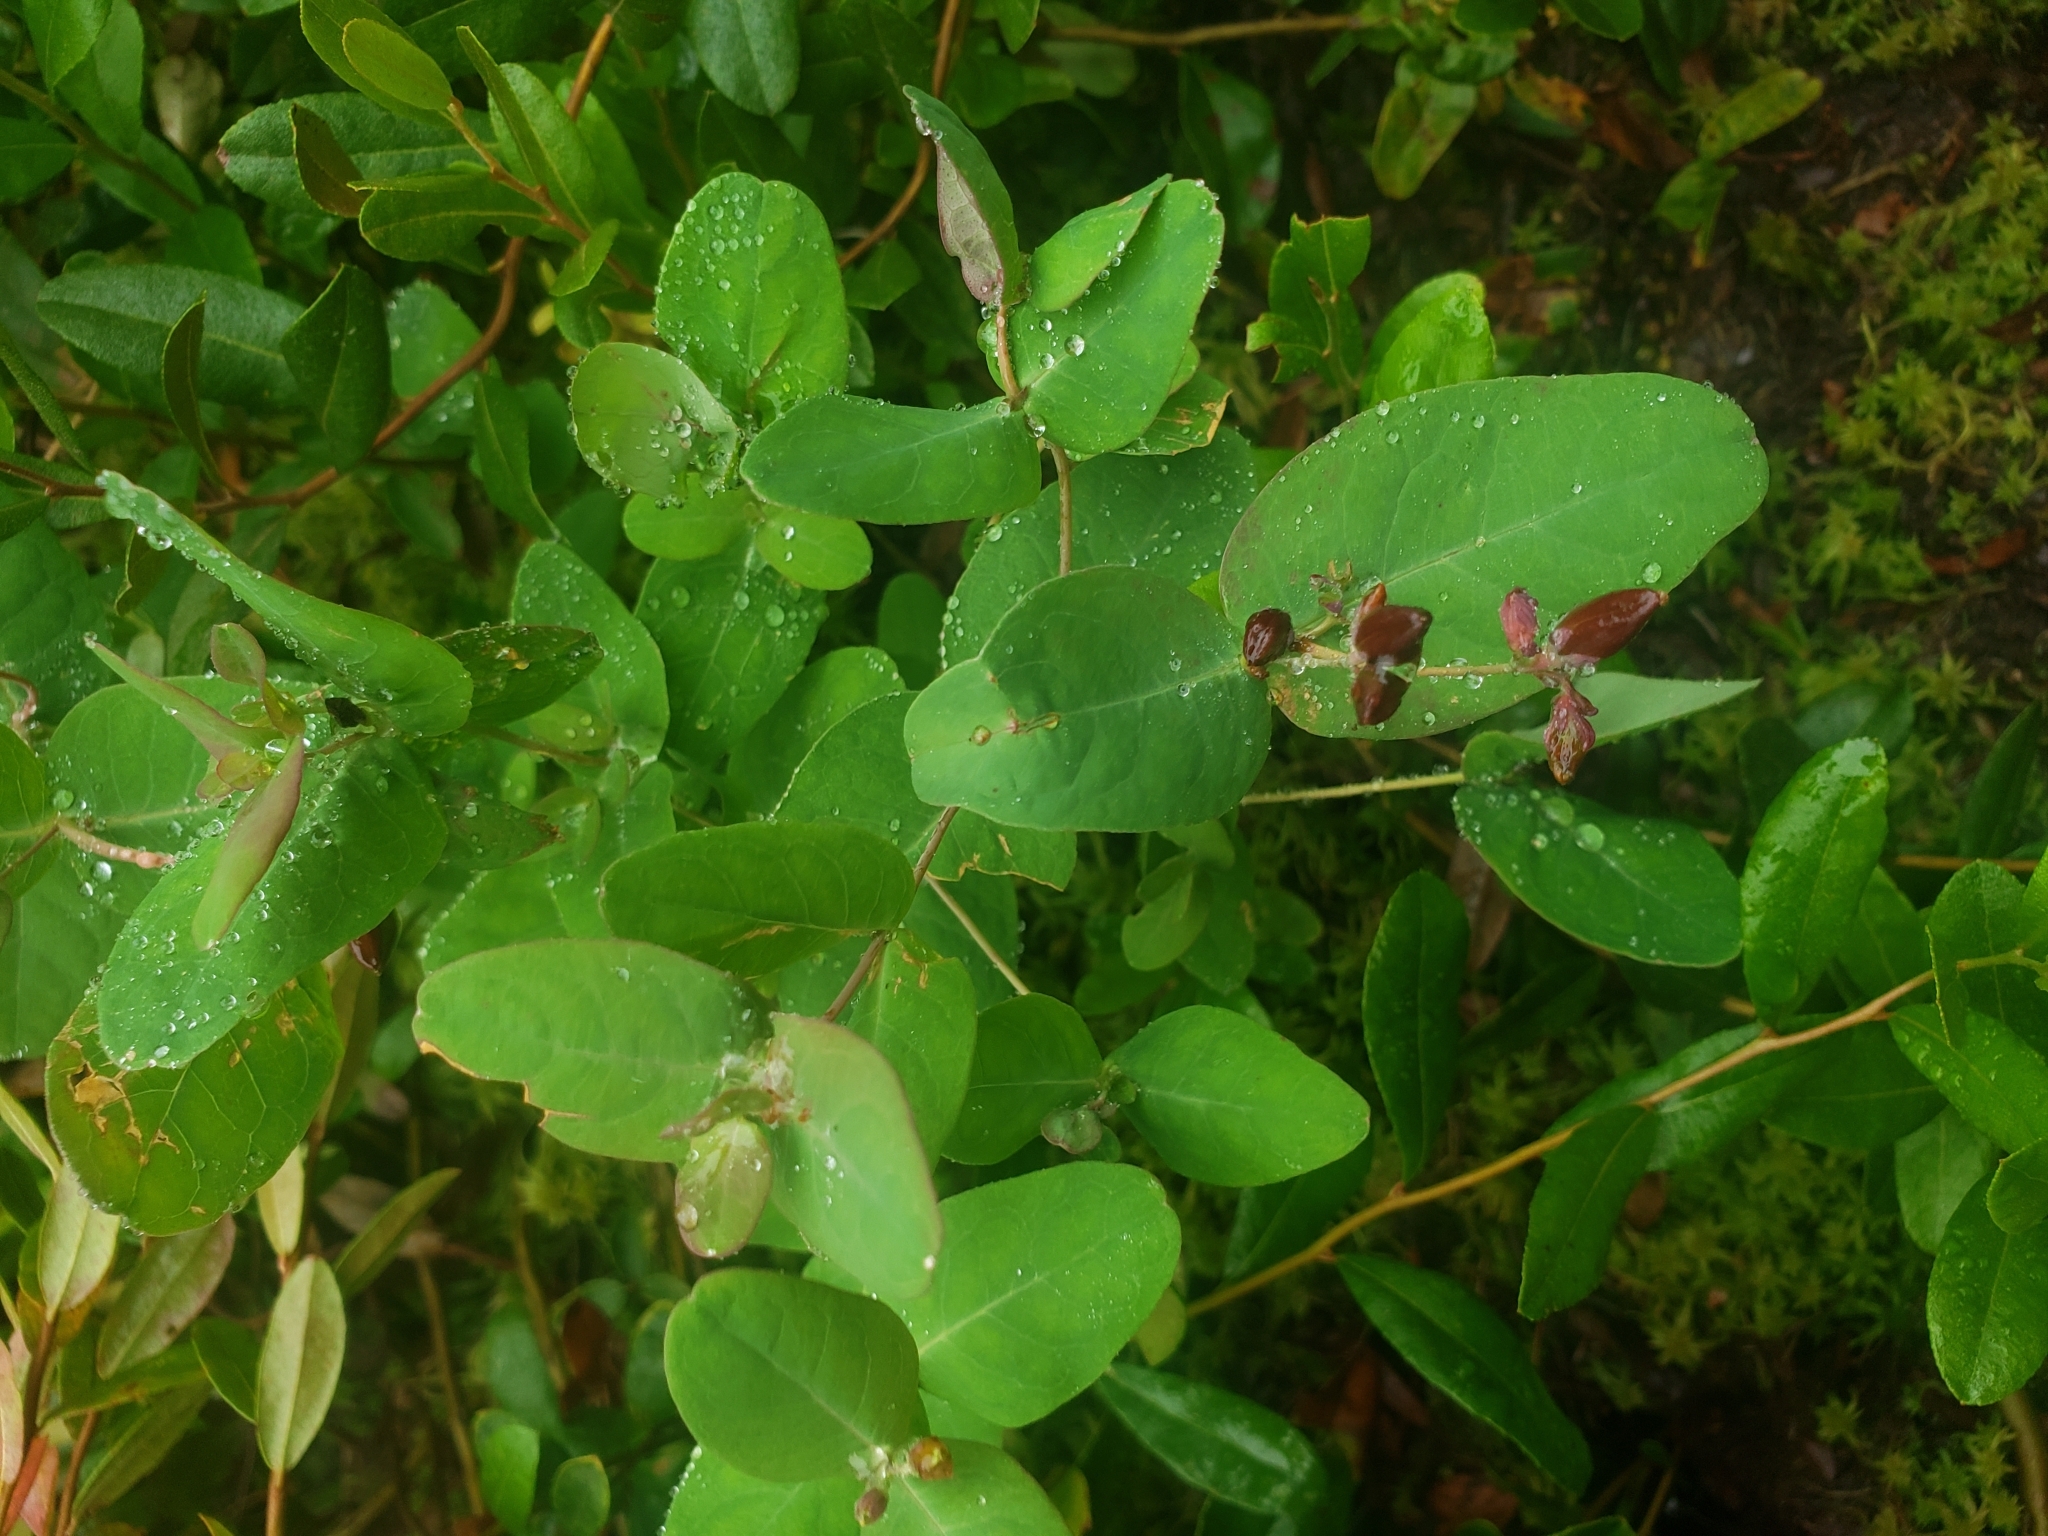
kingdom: Plantae
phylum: Tracheophyta
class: Magnoliopsida
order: Malpighiales
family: Hypericaceae
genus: Triadenum
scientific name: Triadenum fraseri
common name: Fraser's marsh st. johnswort
